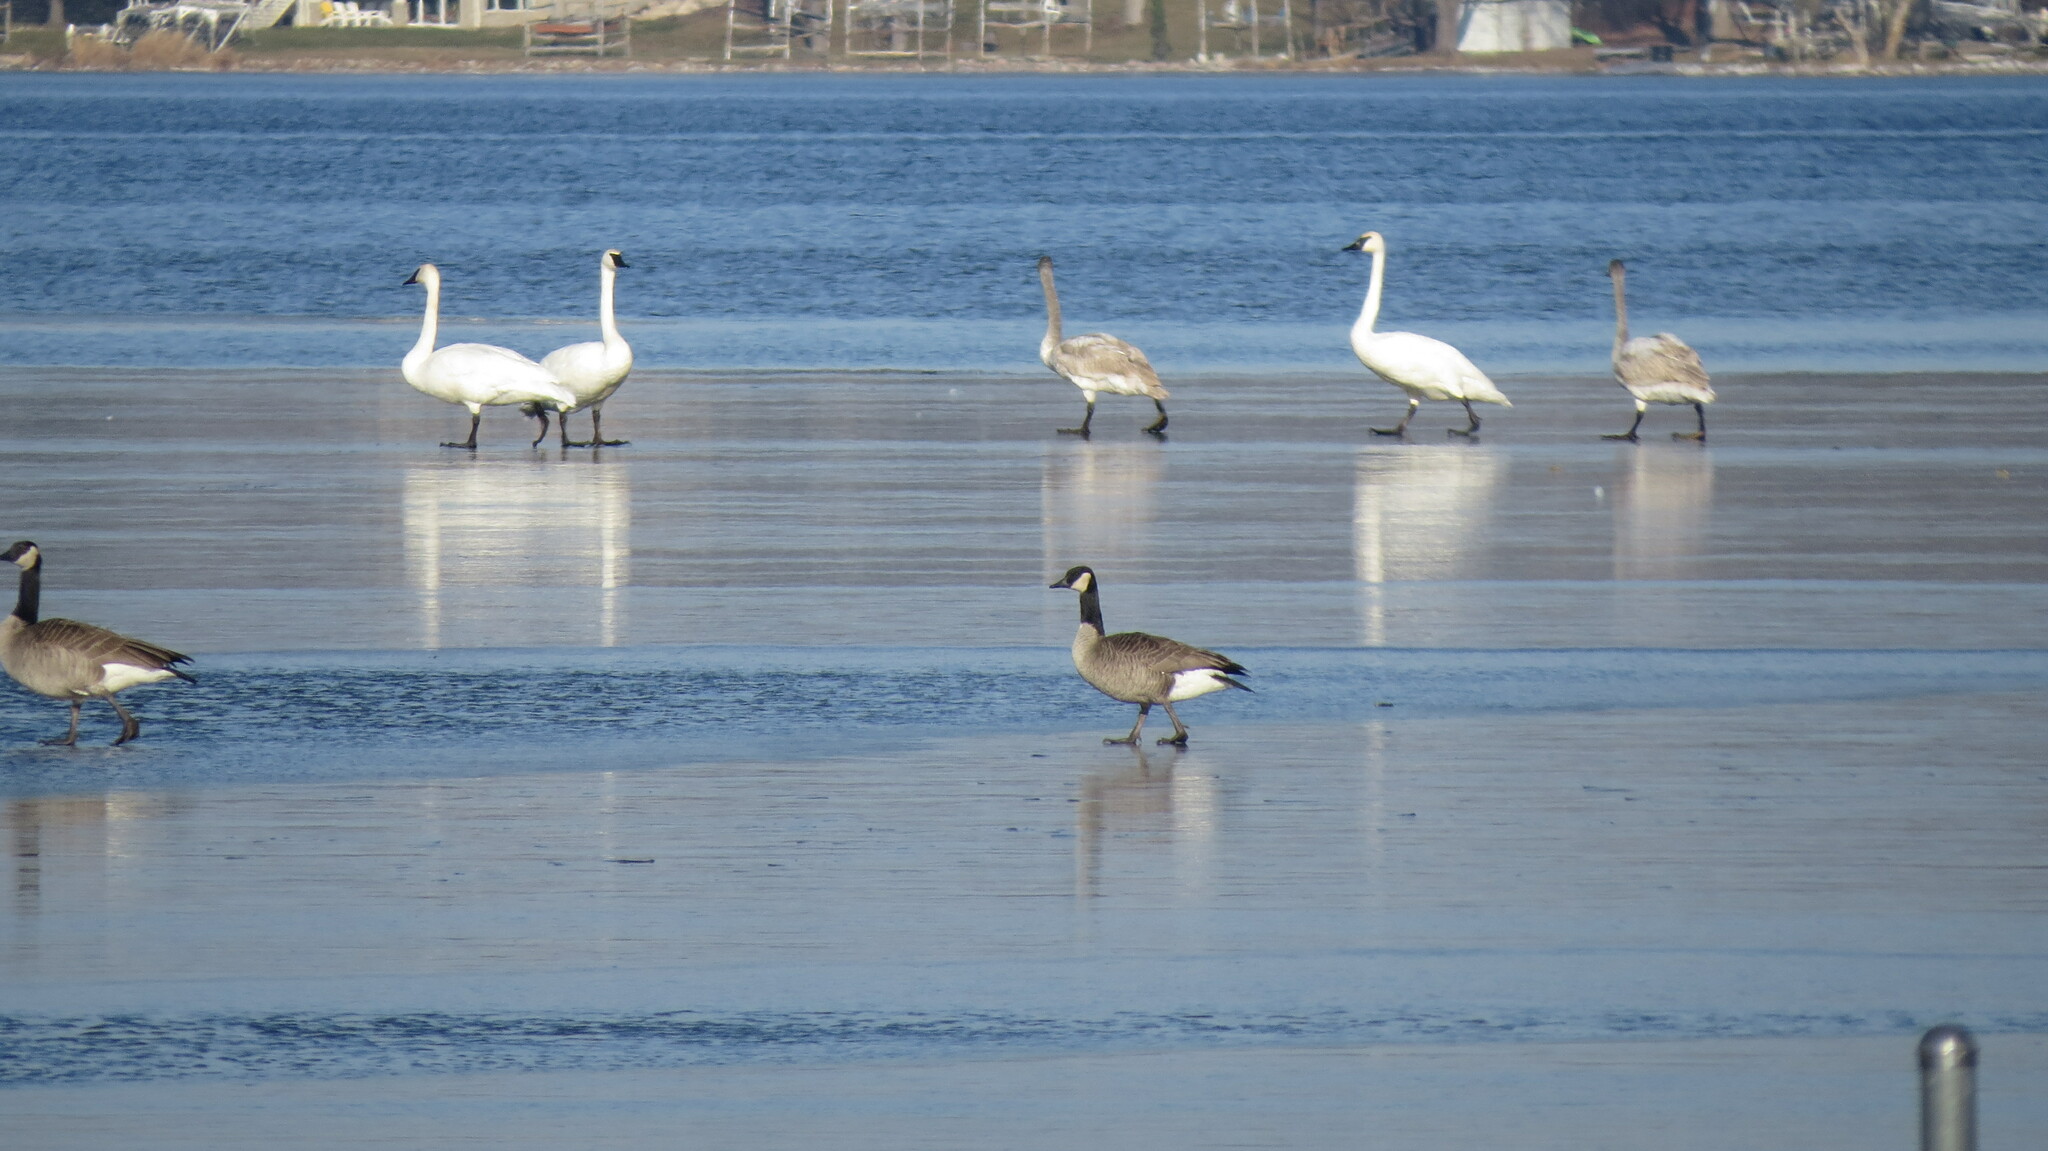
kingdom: Animalia
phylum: Chordata
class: Aves
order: Anseriformes
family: Anatidae
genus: Branta
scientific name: Branta canadensis
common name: Canada goose
